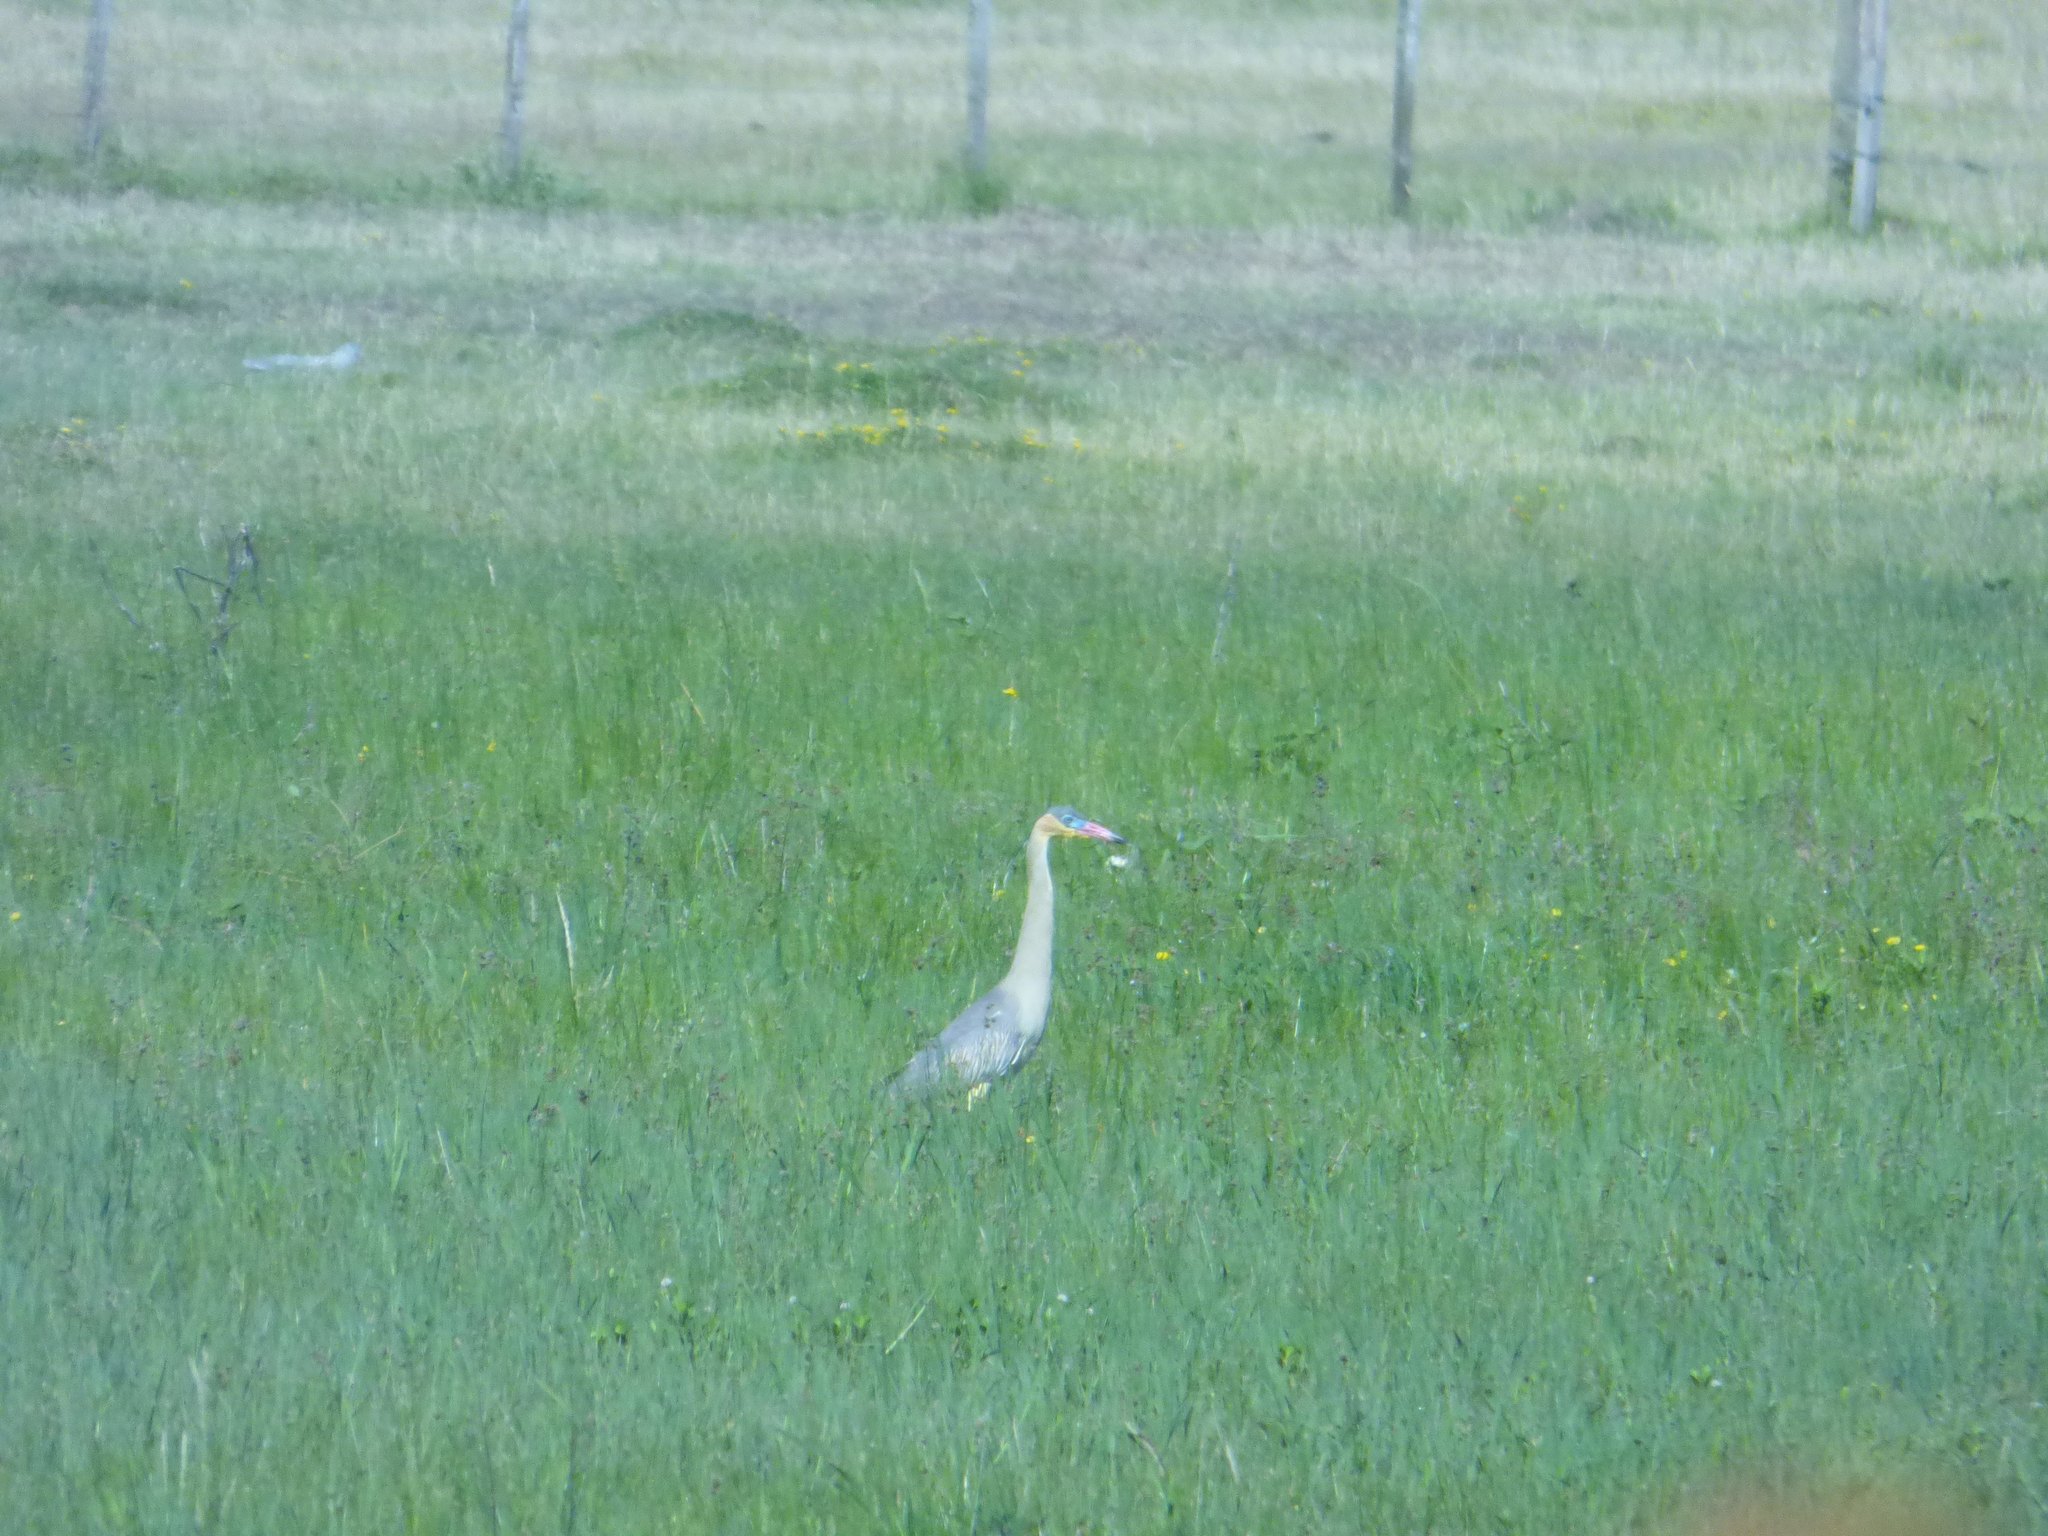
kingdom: Animalia
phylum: Chordata
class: Aves
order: Pelecaniformes
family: Ardeidae
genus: Syrigma
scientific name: Syrigma sibilatrix
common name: Whistling heron
